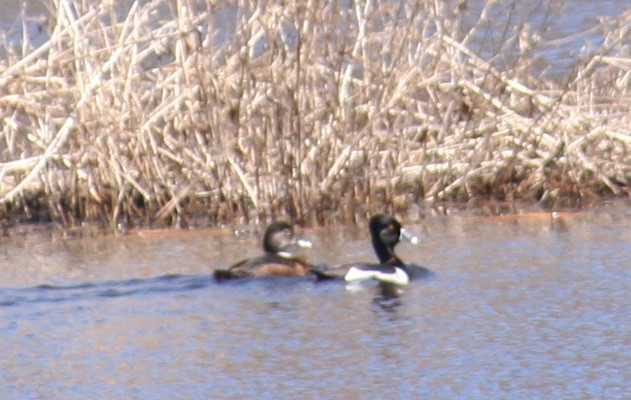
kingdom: Animalia
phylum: Chordata
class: Aves
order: Anseriformes
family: Anatidae
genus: Aythya
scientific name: Aythya collaris
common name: Ring-necked duck
